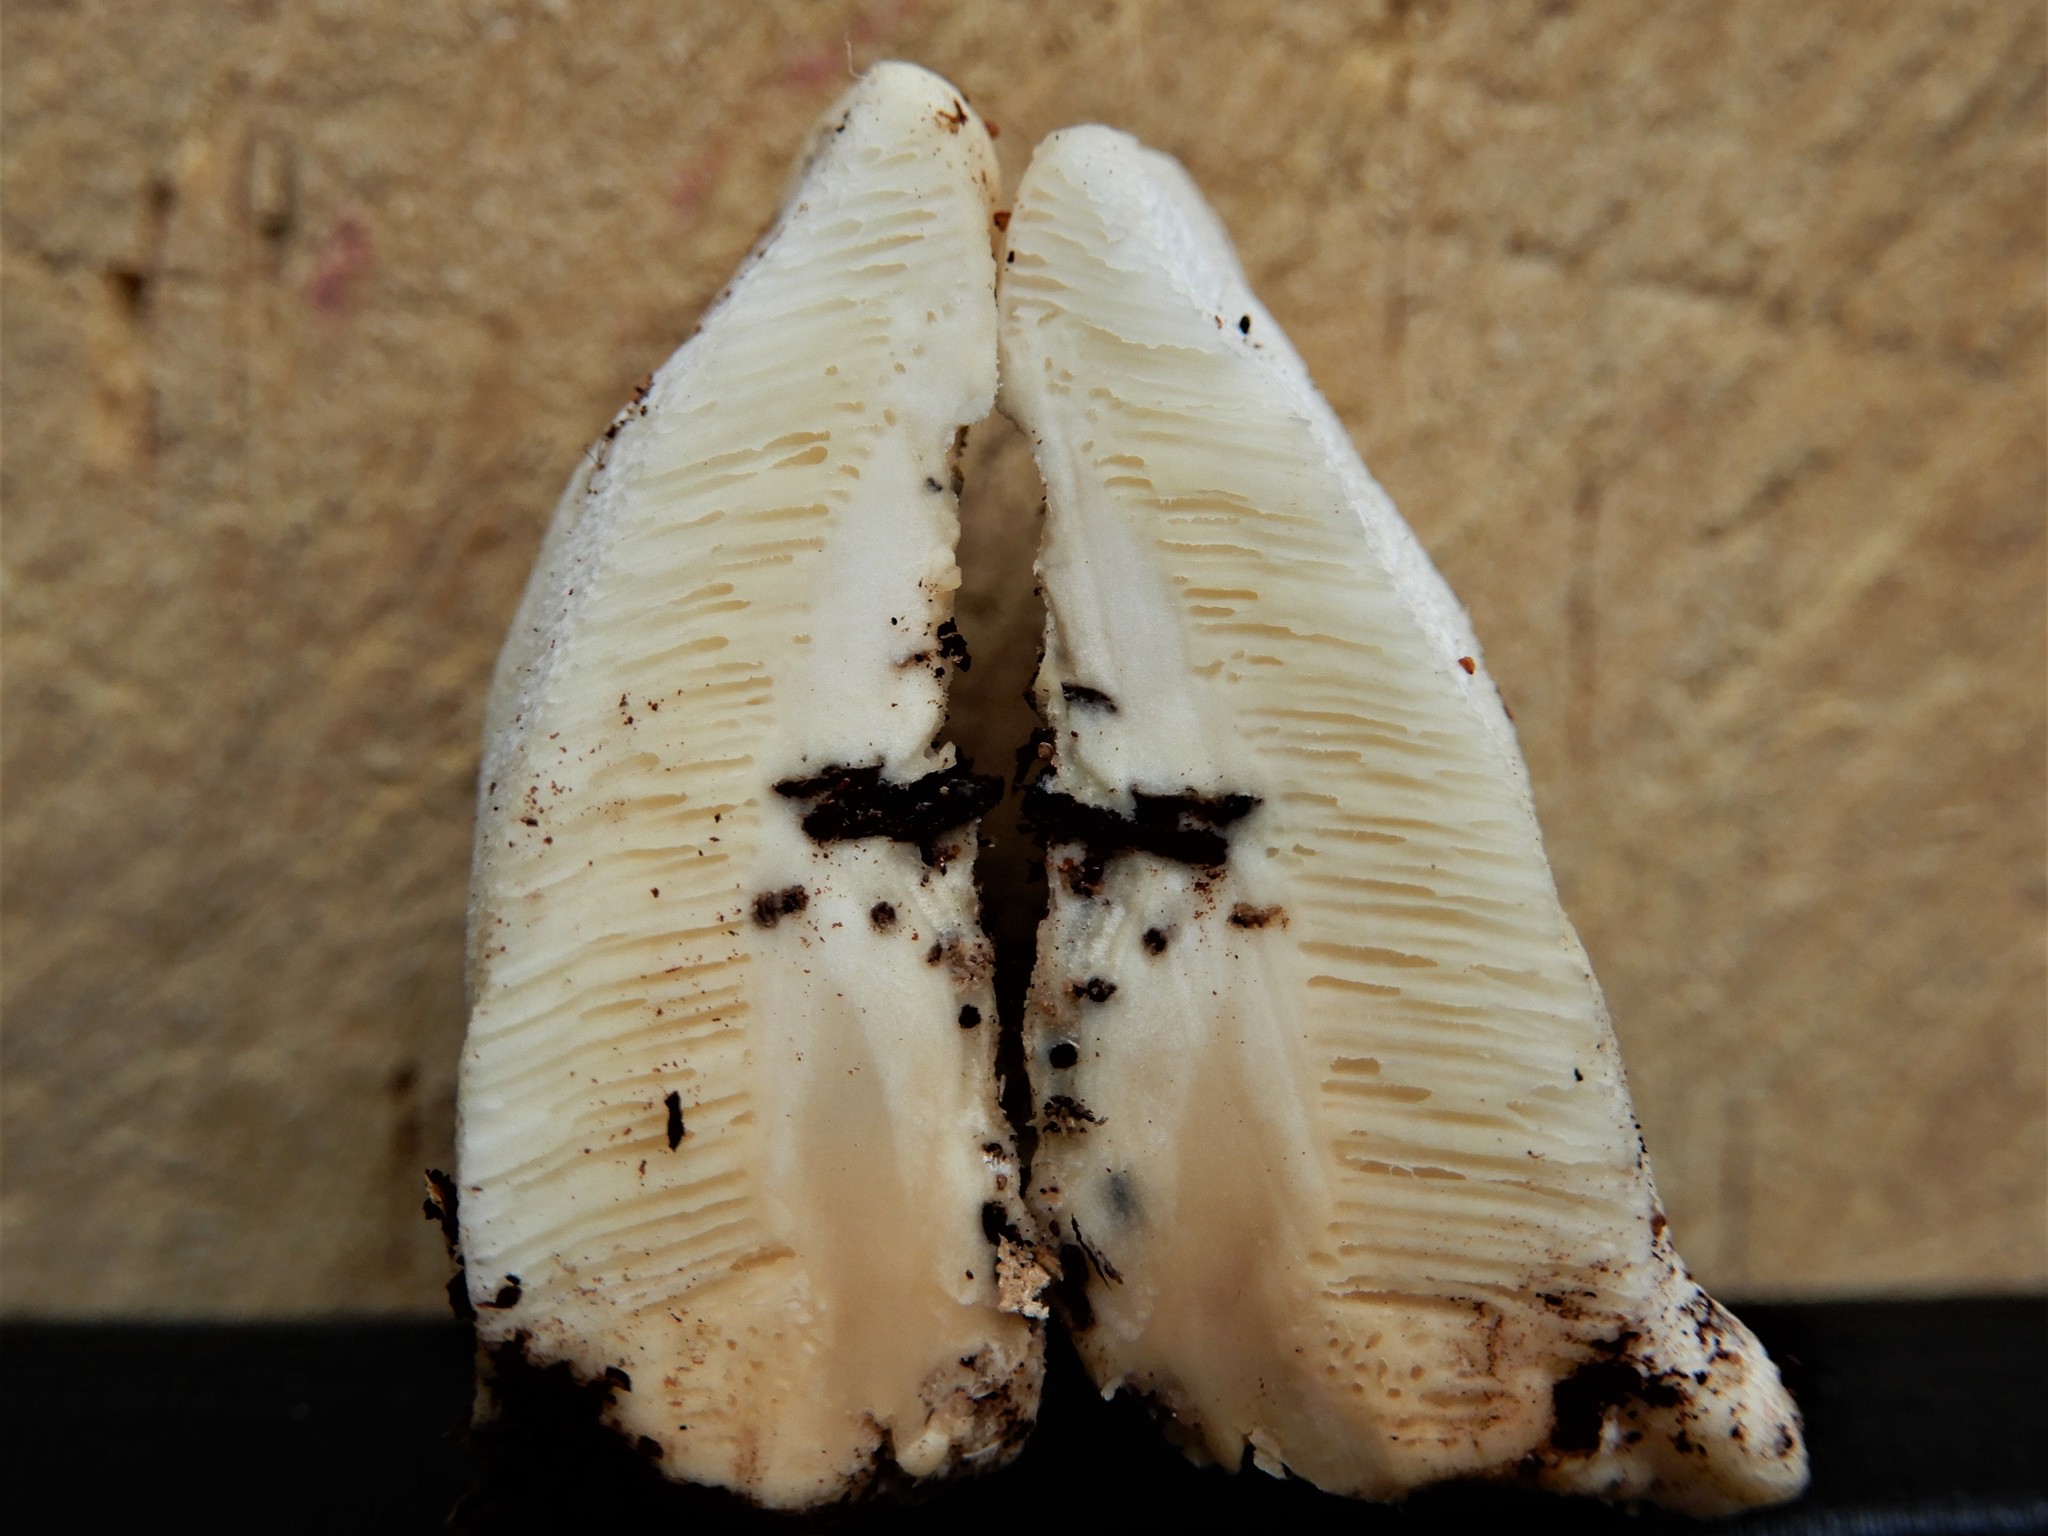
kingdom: Fungi
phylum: Basidiomycota
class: Agaricomycetes
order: Polyporales
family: Polyporaceae
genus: Truncospora
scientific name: Truncospora ochroleuca
